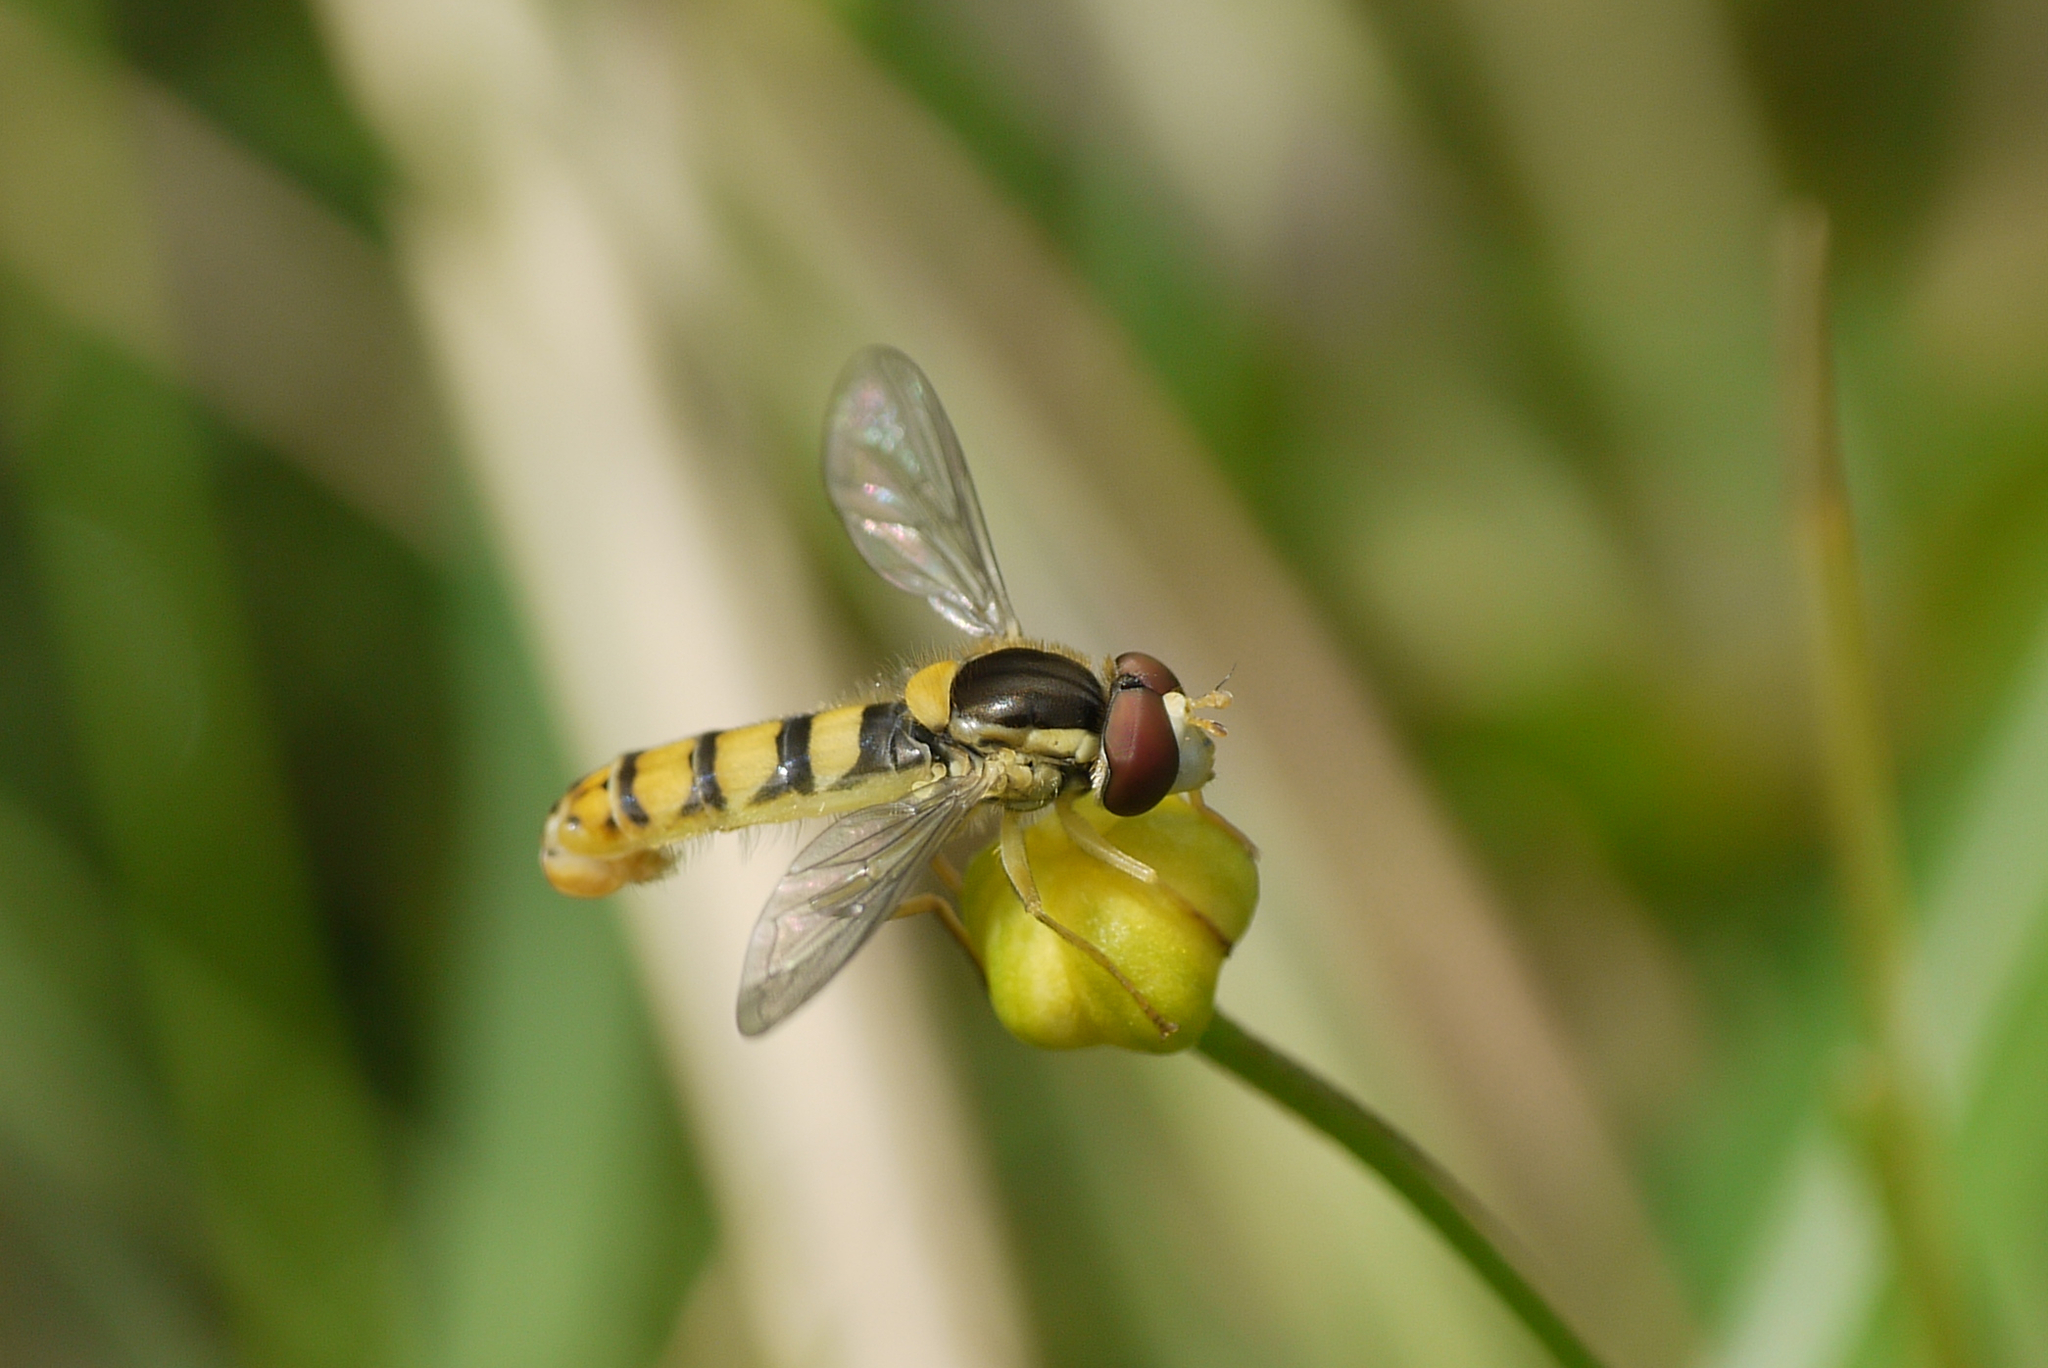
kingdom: Animalia
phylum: Arthropoda
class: Insecta
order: Diptera
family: Syrphidae
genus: Sphaerophoria
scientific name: Sphaerophoria
